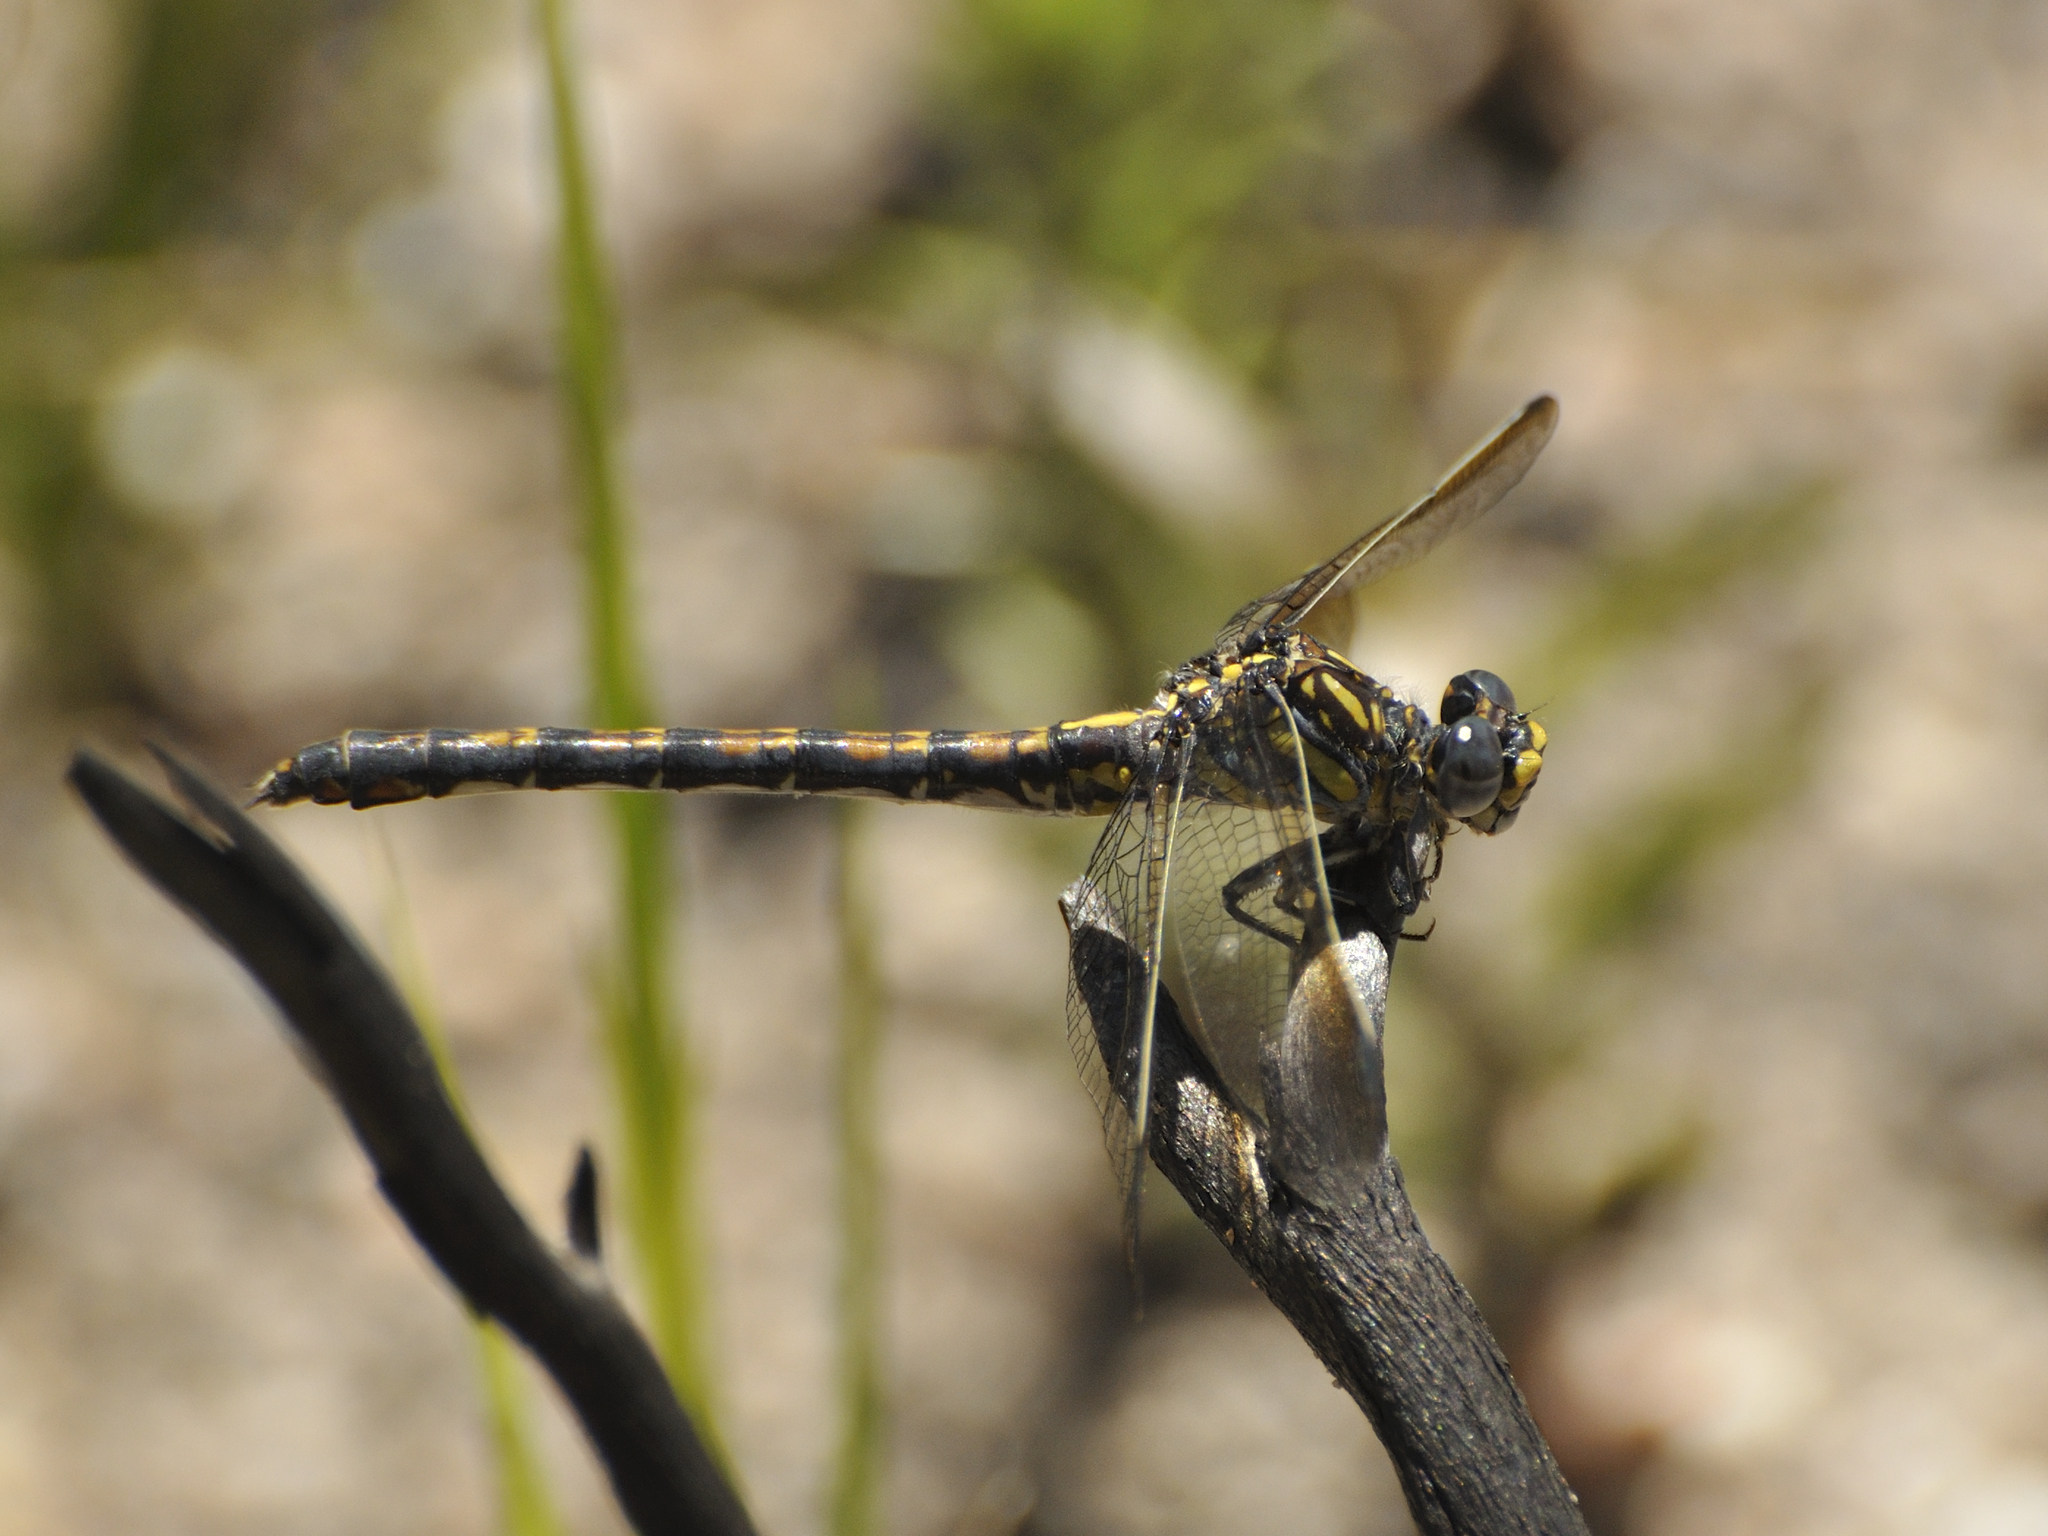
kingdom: Animalia
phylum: Arthropoda
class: Insecta
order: Odonata
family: Gomphidae
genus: Paragomphus
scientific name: Paragomphus cognatus
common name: Boulder hooktail
